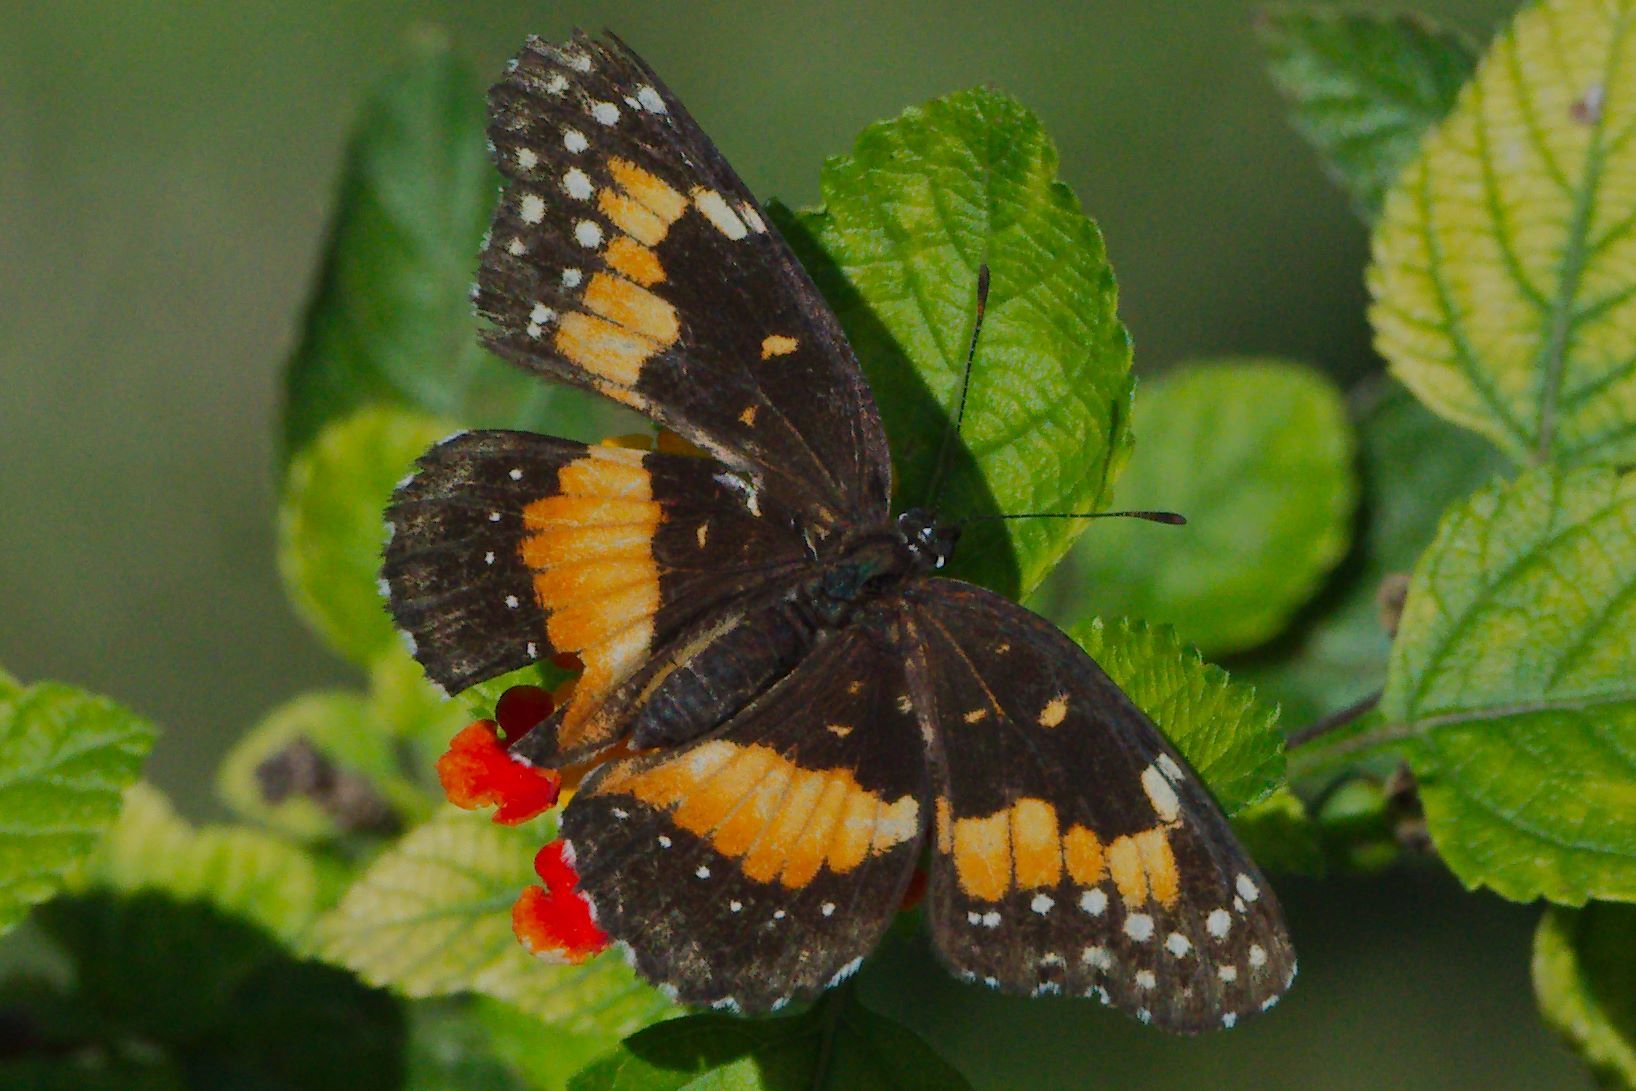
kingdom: Animalia
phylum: Arthropoda
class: Insecta
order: Lepidoptera
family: Nymphalidae
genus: Chlosyne
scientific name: Chlosyne lacinia
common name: Bordered patch
